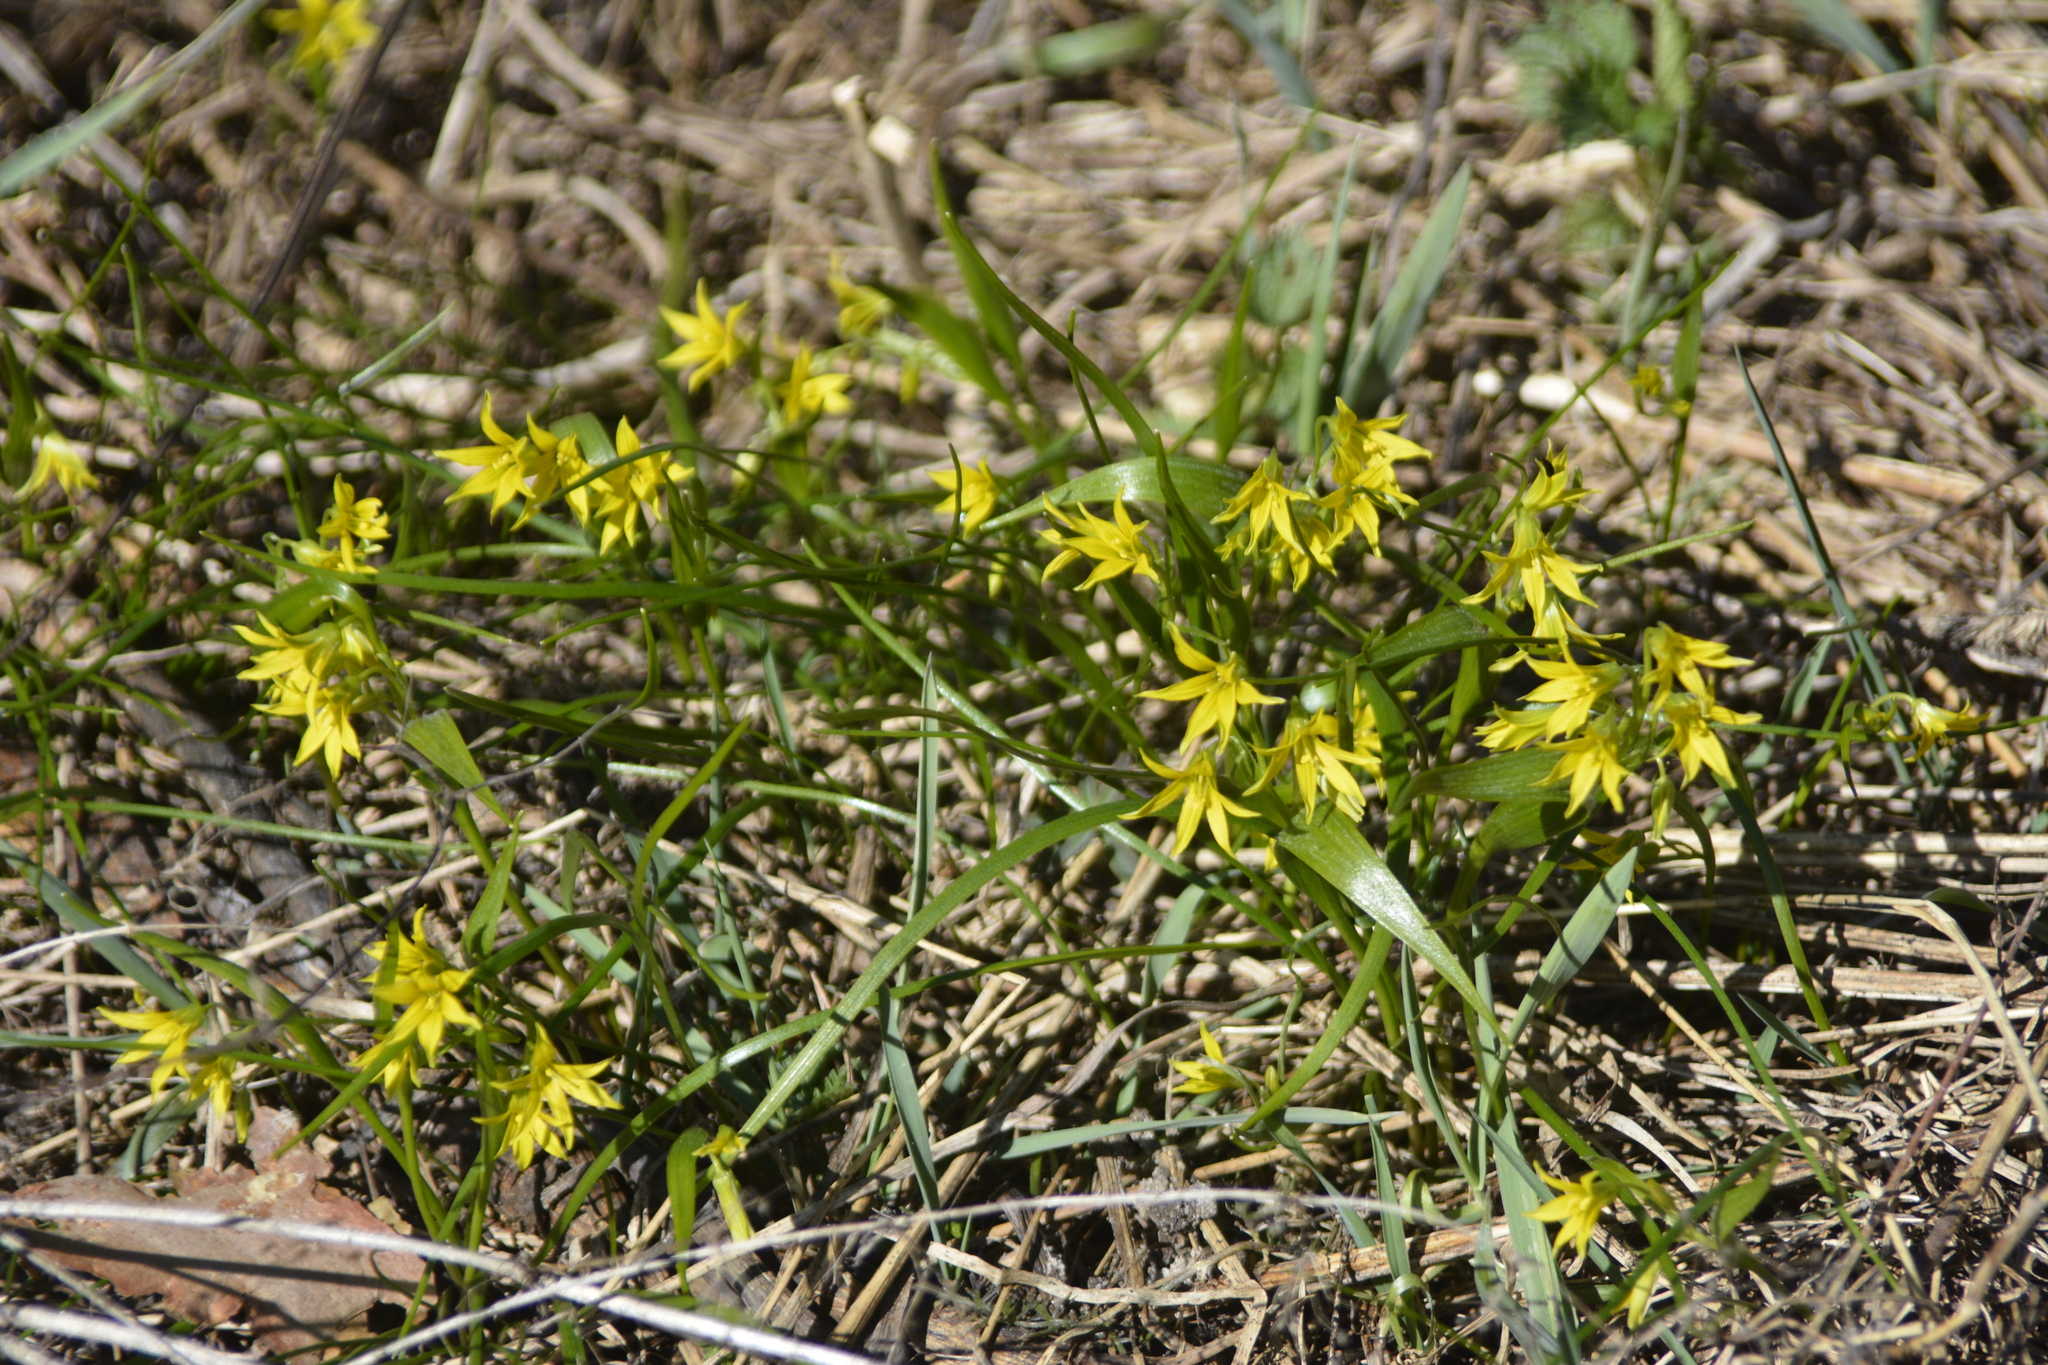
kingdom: Plantae
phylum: Tracheophyta
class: Liliopsida
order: Liliales
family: Liliaceae
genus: Gagea
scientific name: Gagea minima
